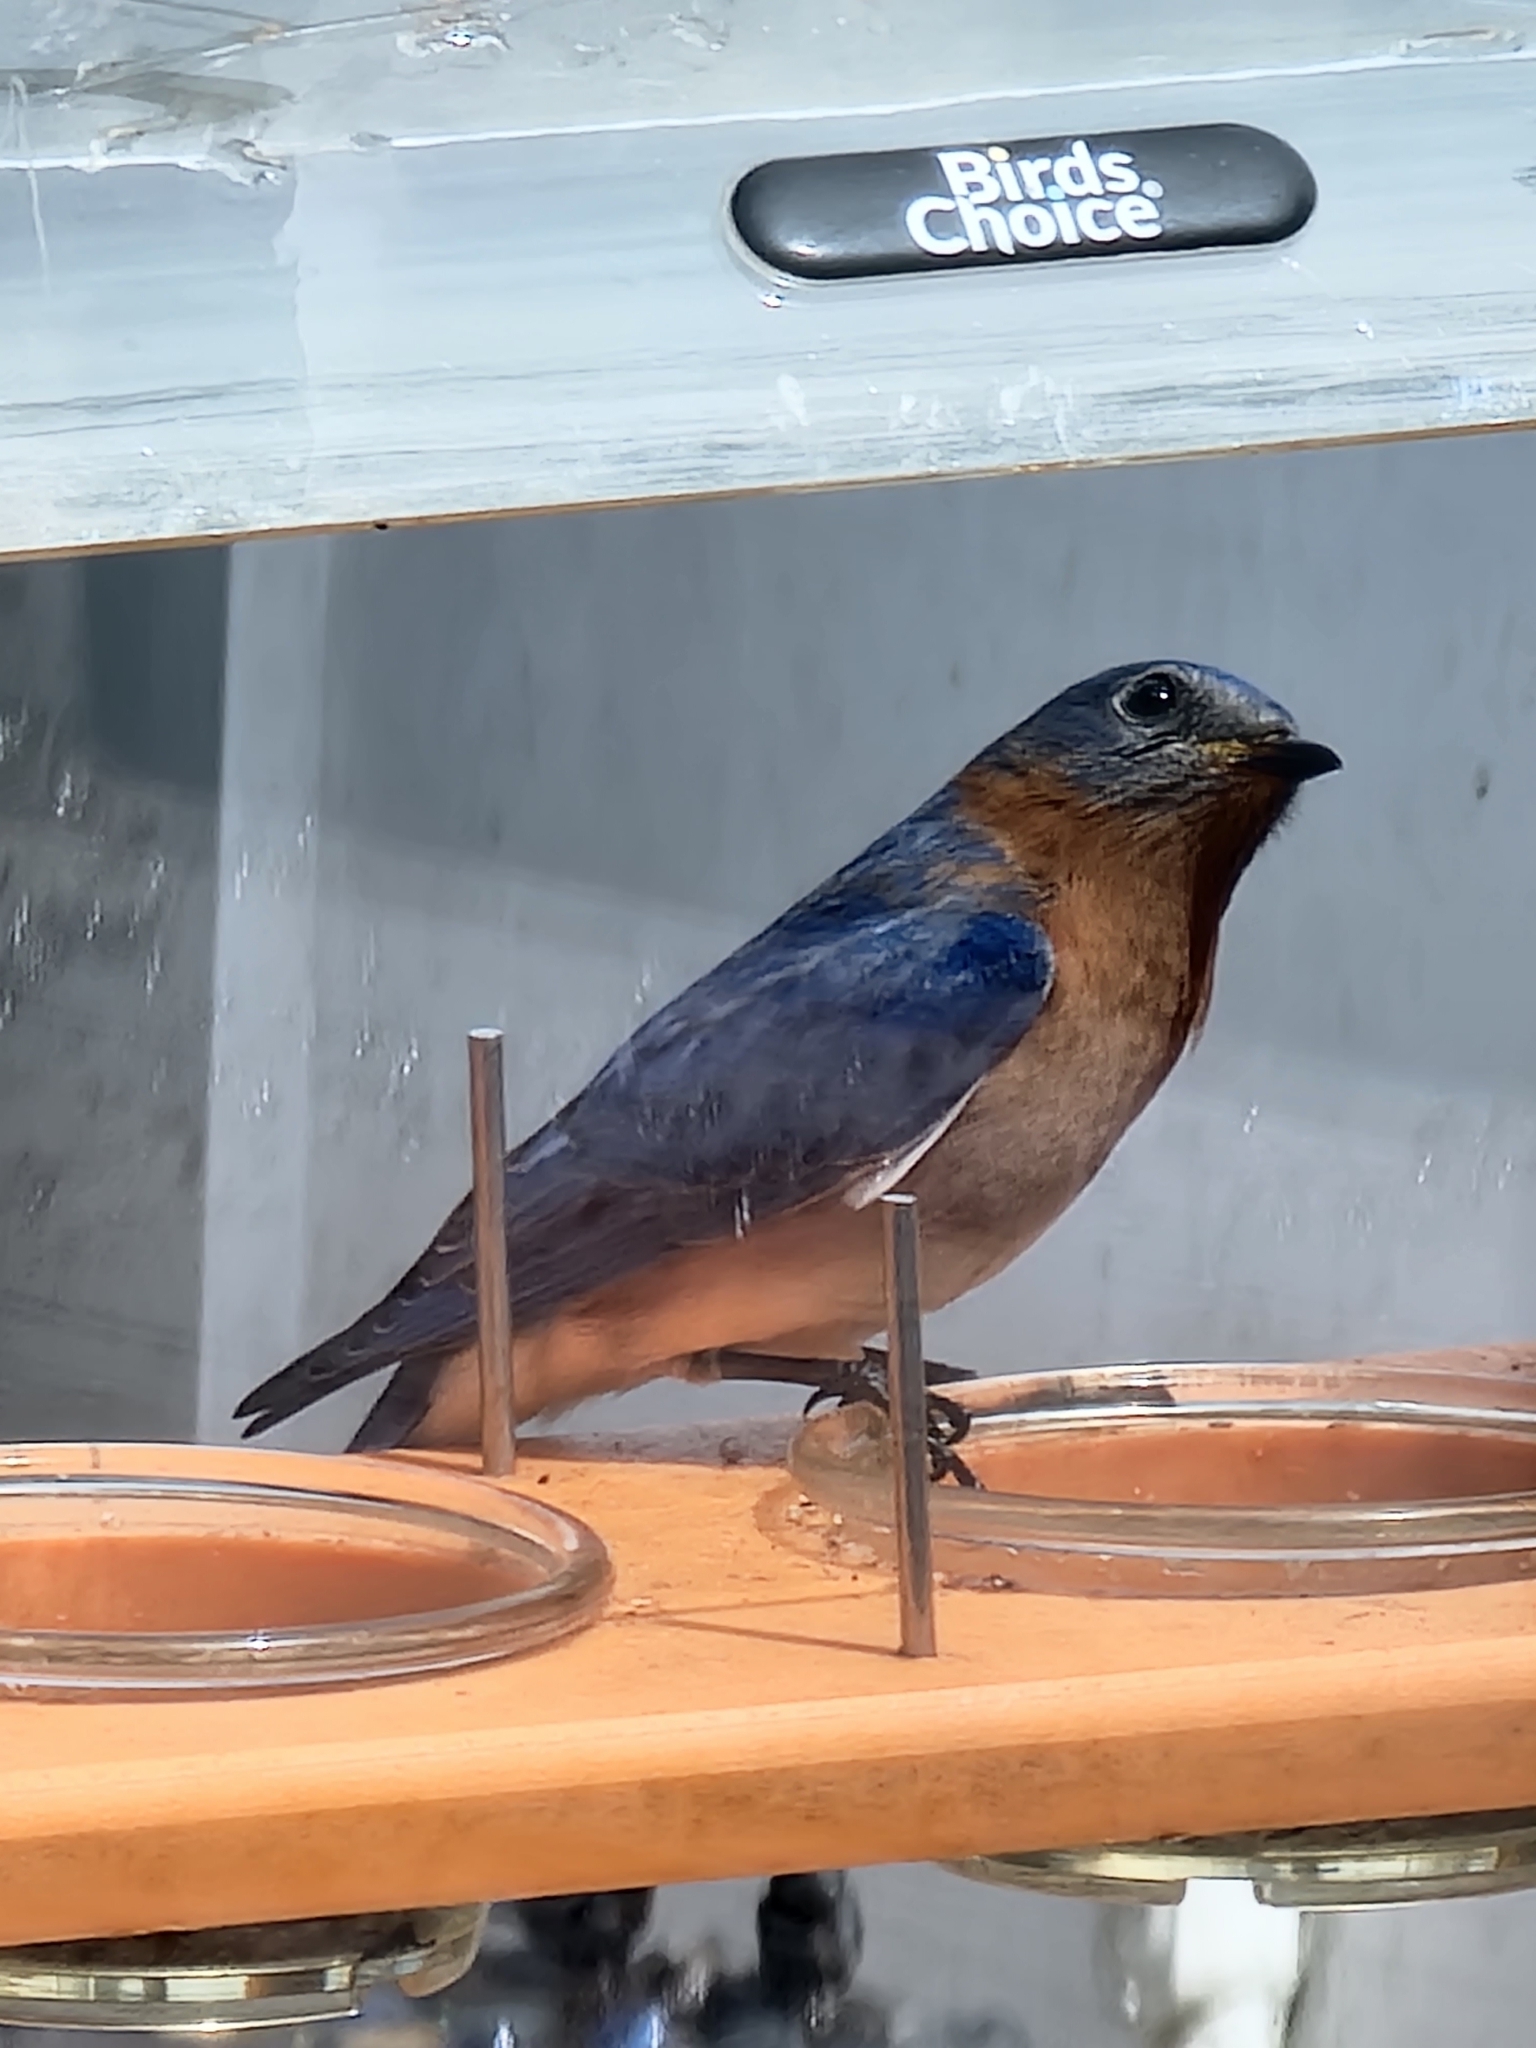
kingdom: Animalia
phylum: Chordata
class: Aves
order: Passeriformes
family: Turdidae
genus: Sialia
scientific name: Sialia sialis
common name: Eastern bluebird
